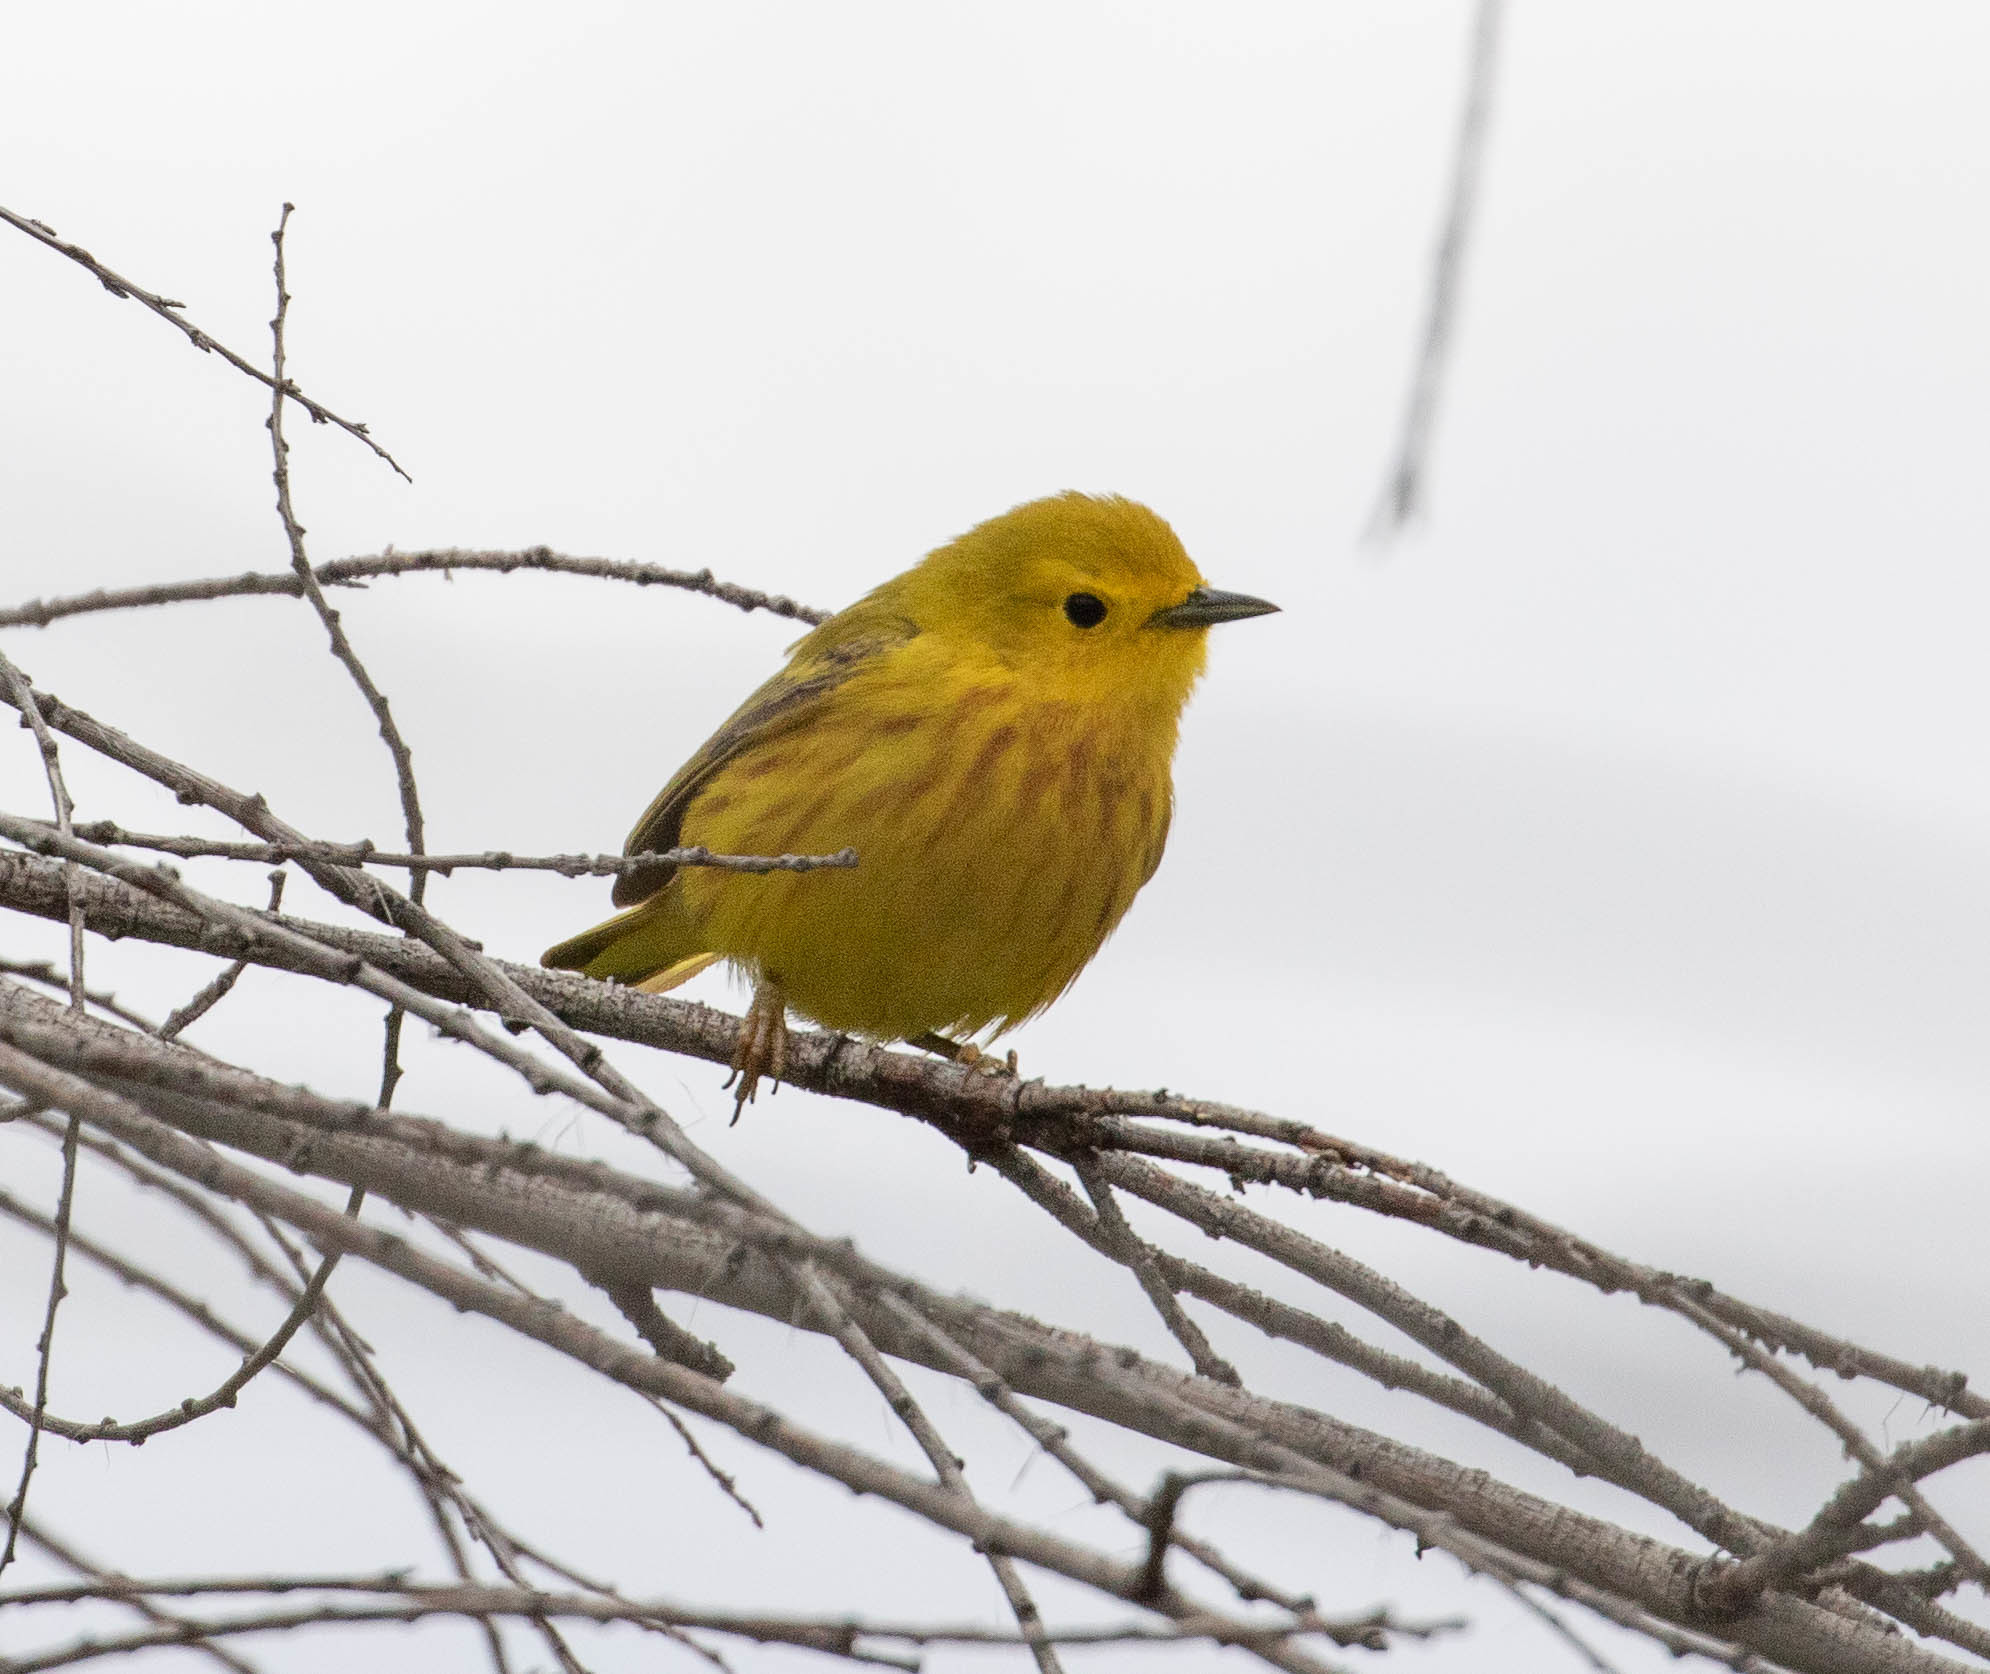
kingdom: Animalia
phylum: Chordata
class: Aves
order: Passeriformes
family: Parulidae
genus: Setophaga
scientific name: Setophaga petechia
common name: Yellow warbler
